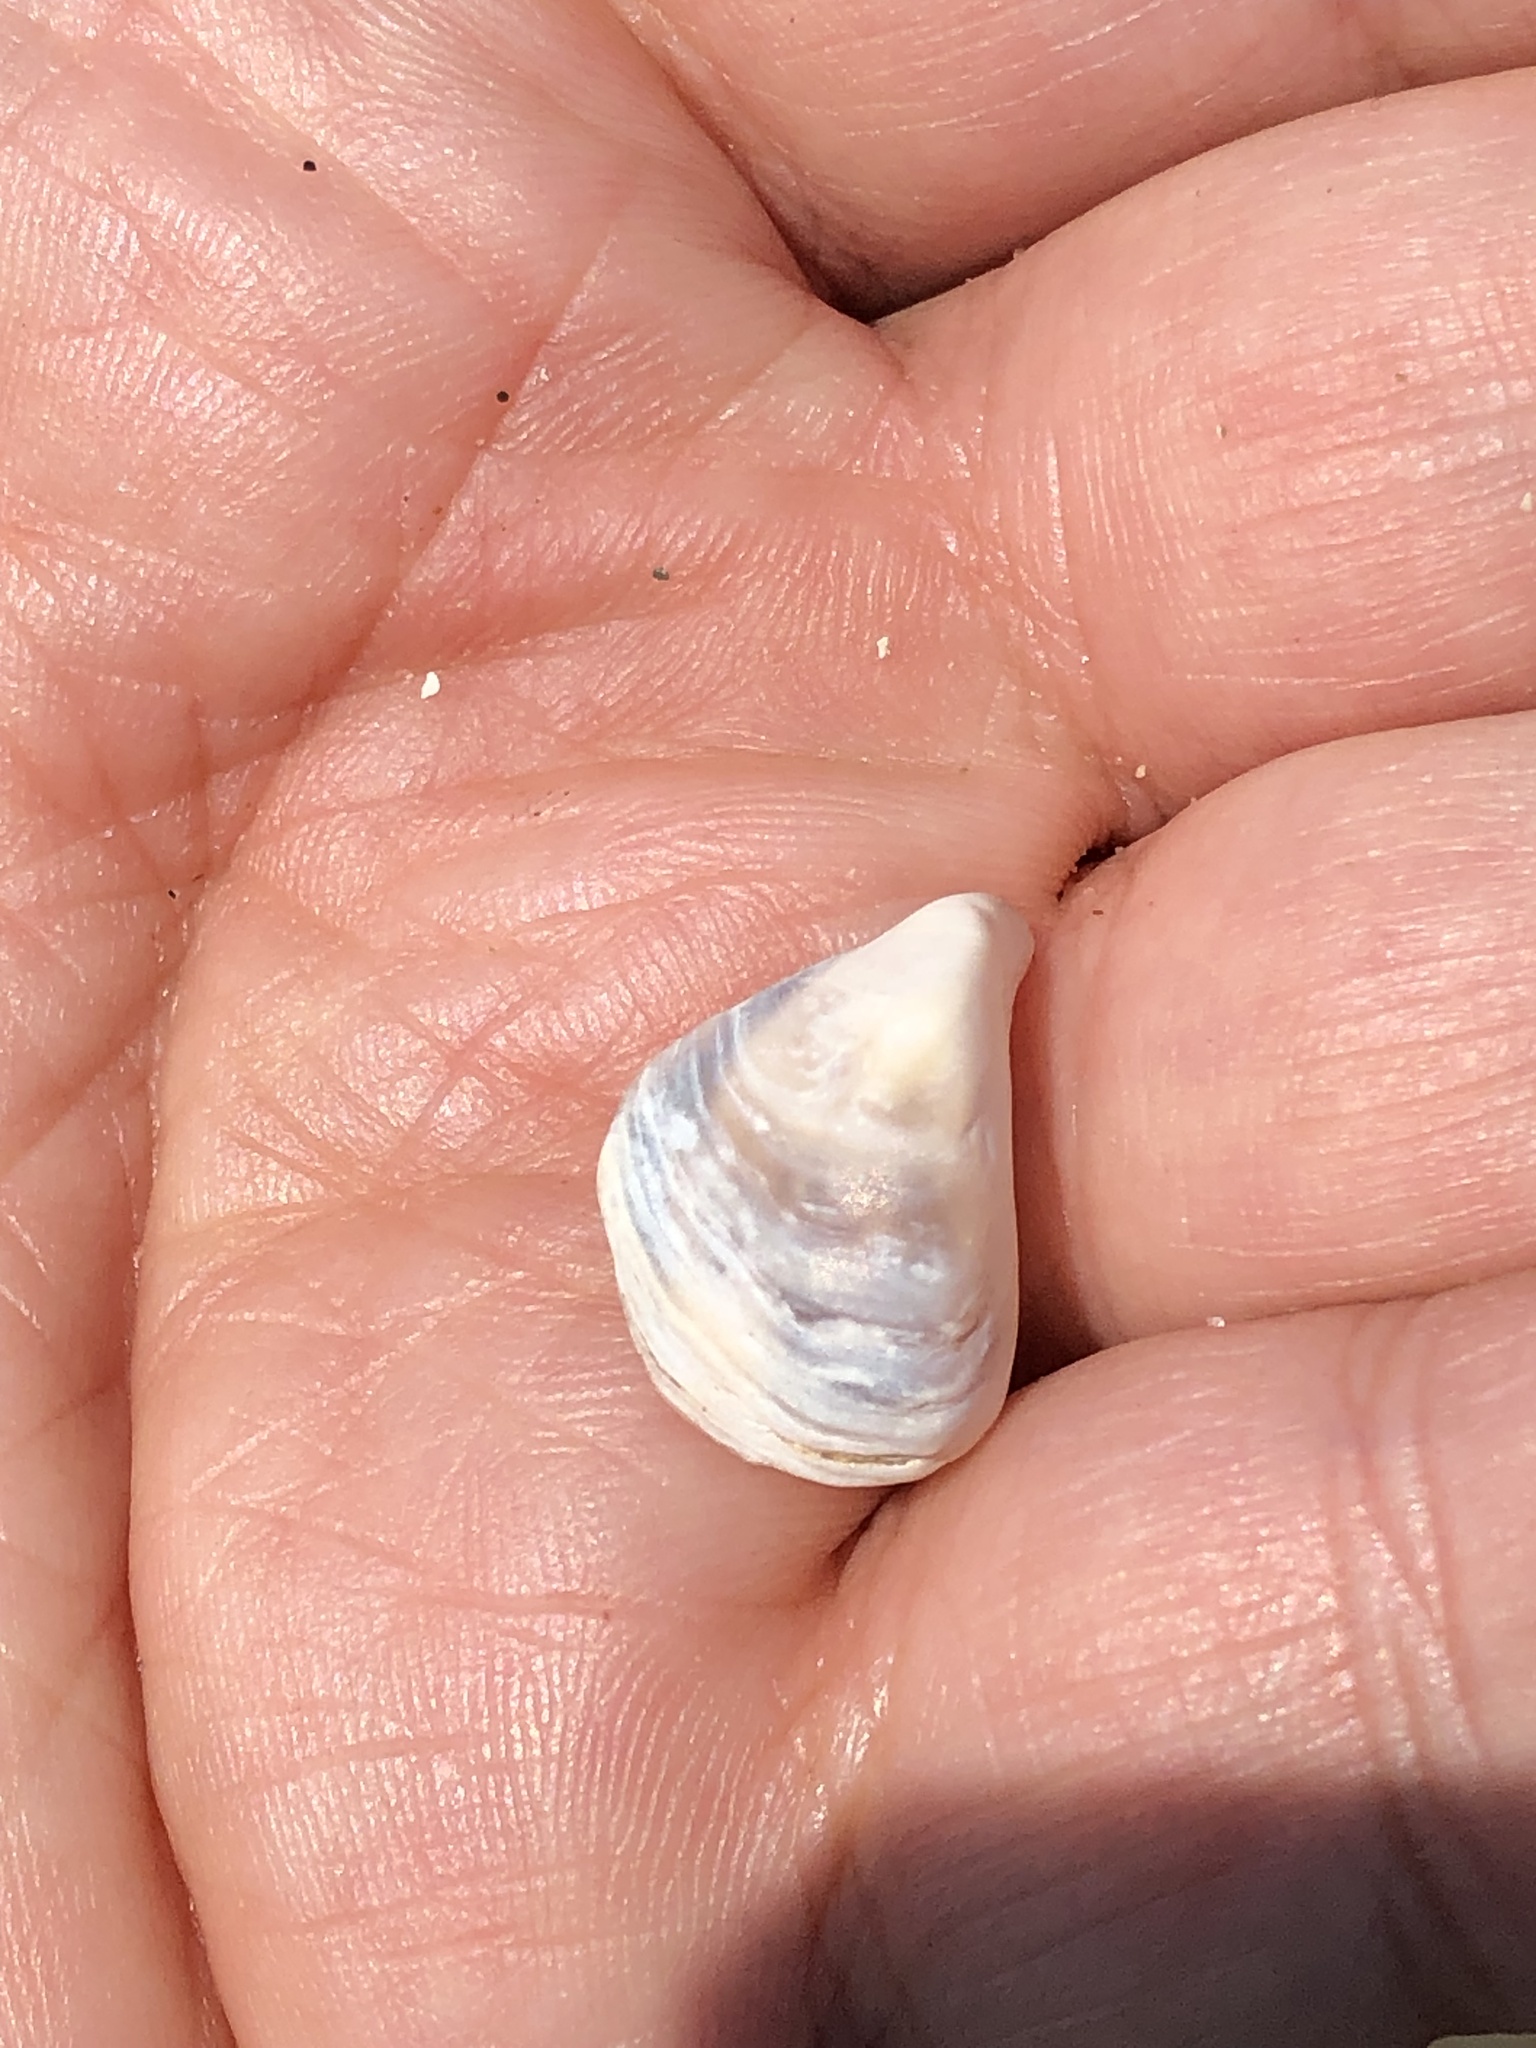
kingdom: Animalia
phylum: Mollusca
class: Bivalvia
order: Myida
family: Dreissenidae
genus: Dreissena
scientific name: Dreissena bugensis
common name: Quagga mussel
